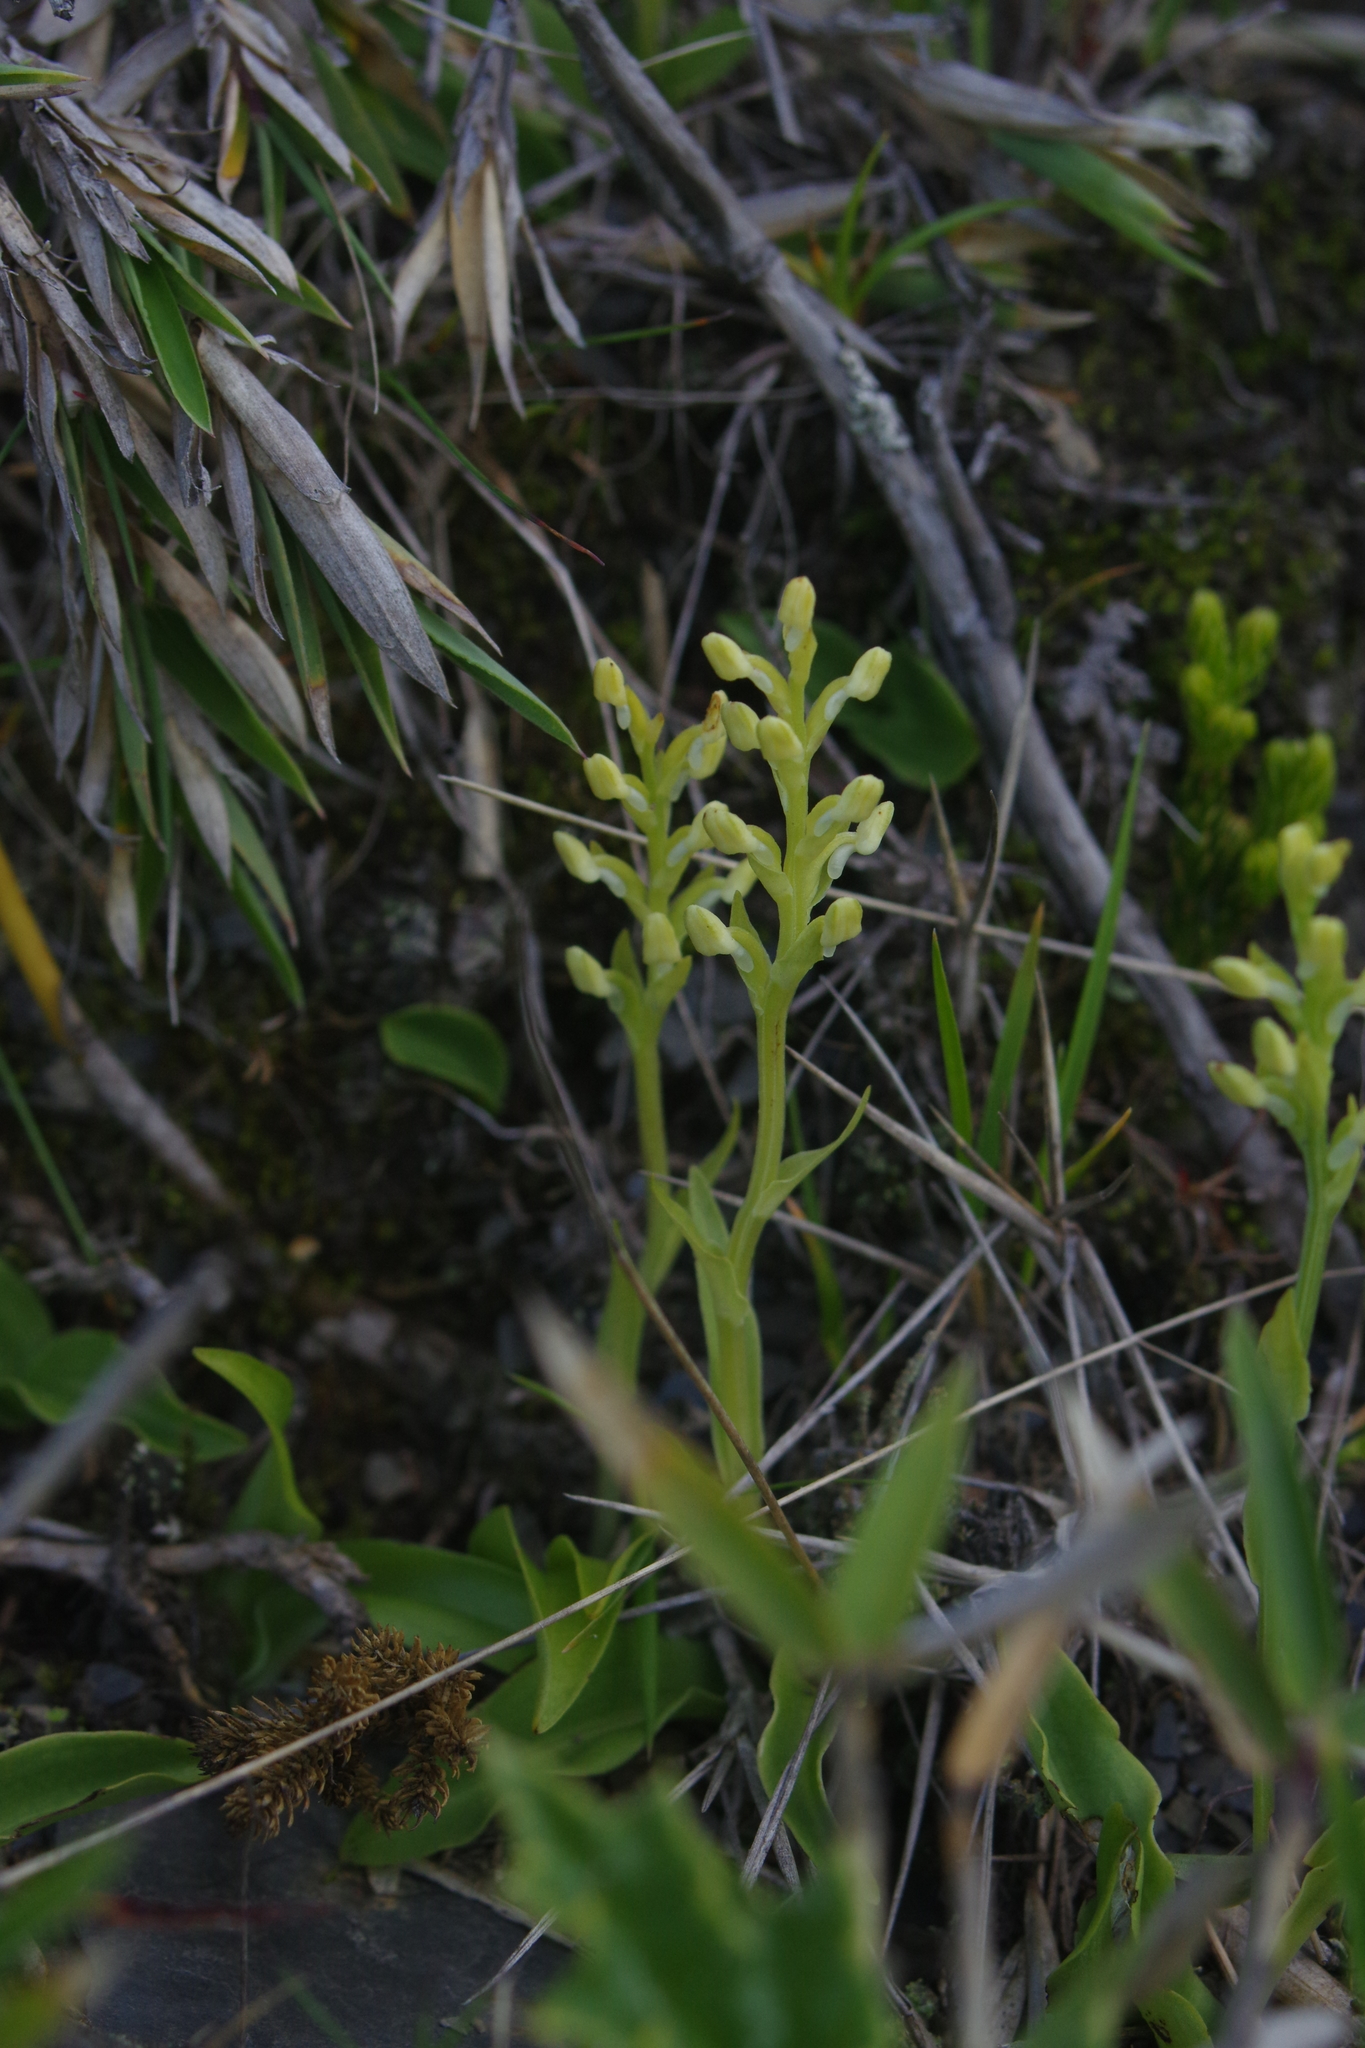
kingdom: Plantae
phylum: Tracheophyta
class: Liliopsida
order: Asparagales
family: Orchidaceae
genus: Platanthera
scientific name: Platanthera brevicalcarata
